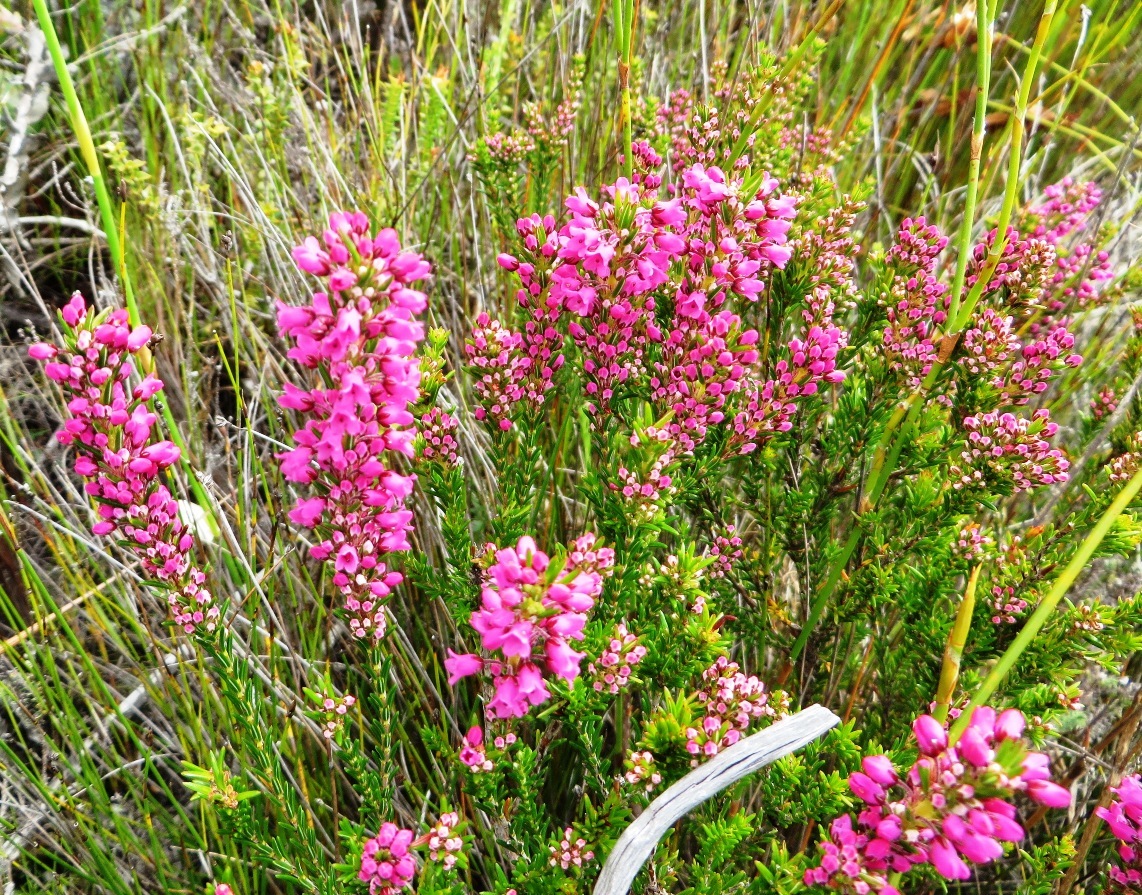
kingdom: Plantae
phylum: Tracheophyta
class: Magnoliopsida
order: Ericales
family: Ericaceae
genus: Erica
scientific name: Erica pulchella
